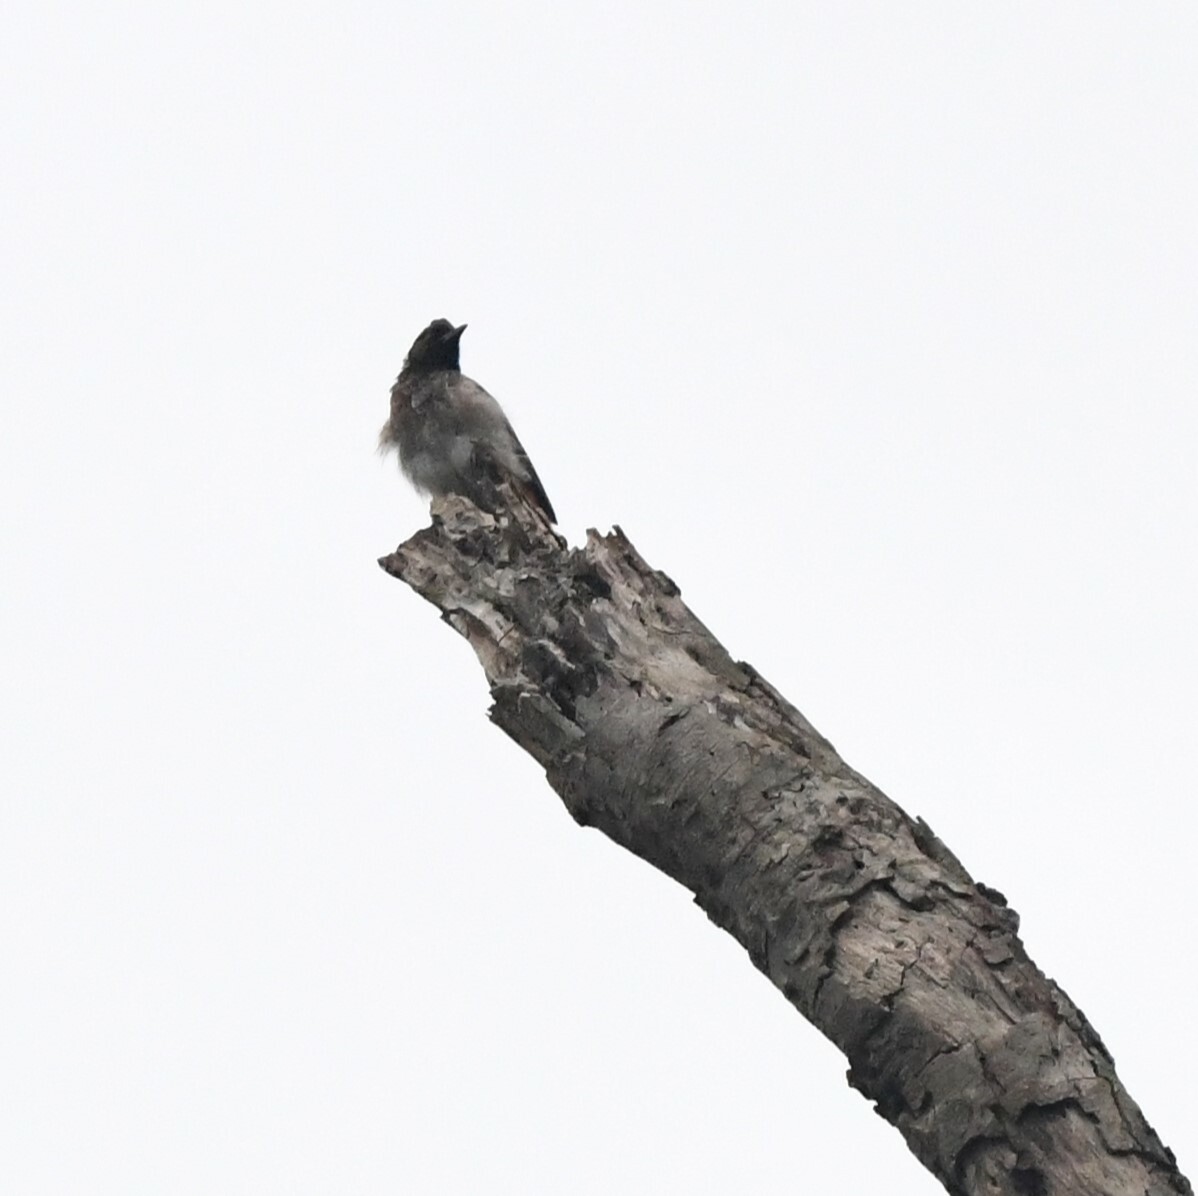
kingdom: Animalia
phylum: Chordata
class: Aves
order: Passeriformes
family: Pycnonotidae
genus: Pycnonotus
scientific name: Pycnonotus cafer
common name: Red-vented bulbul
